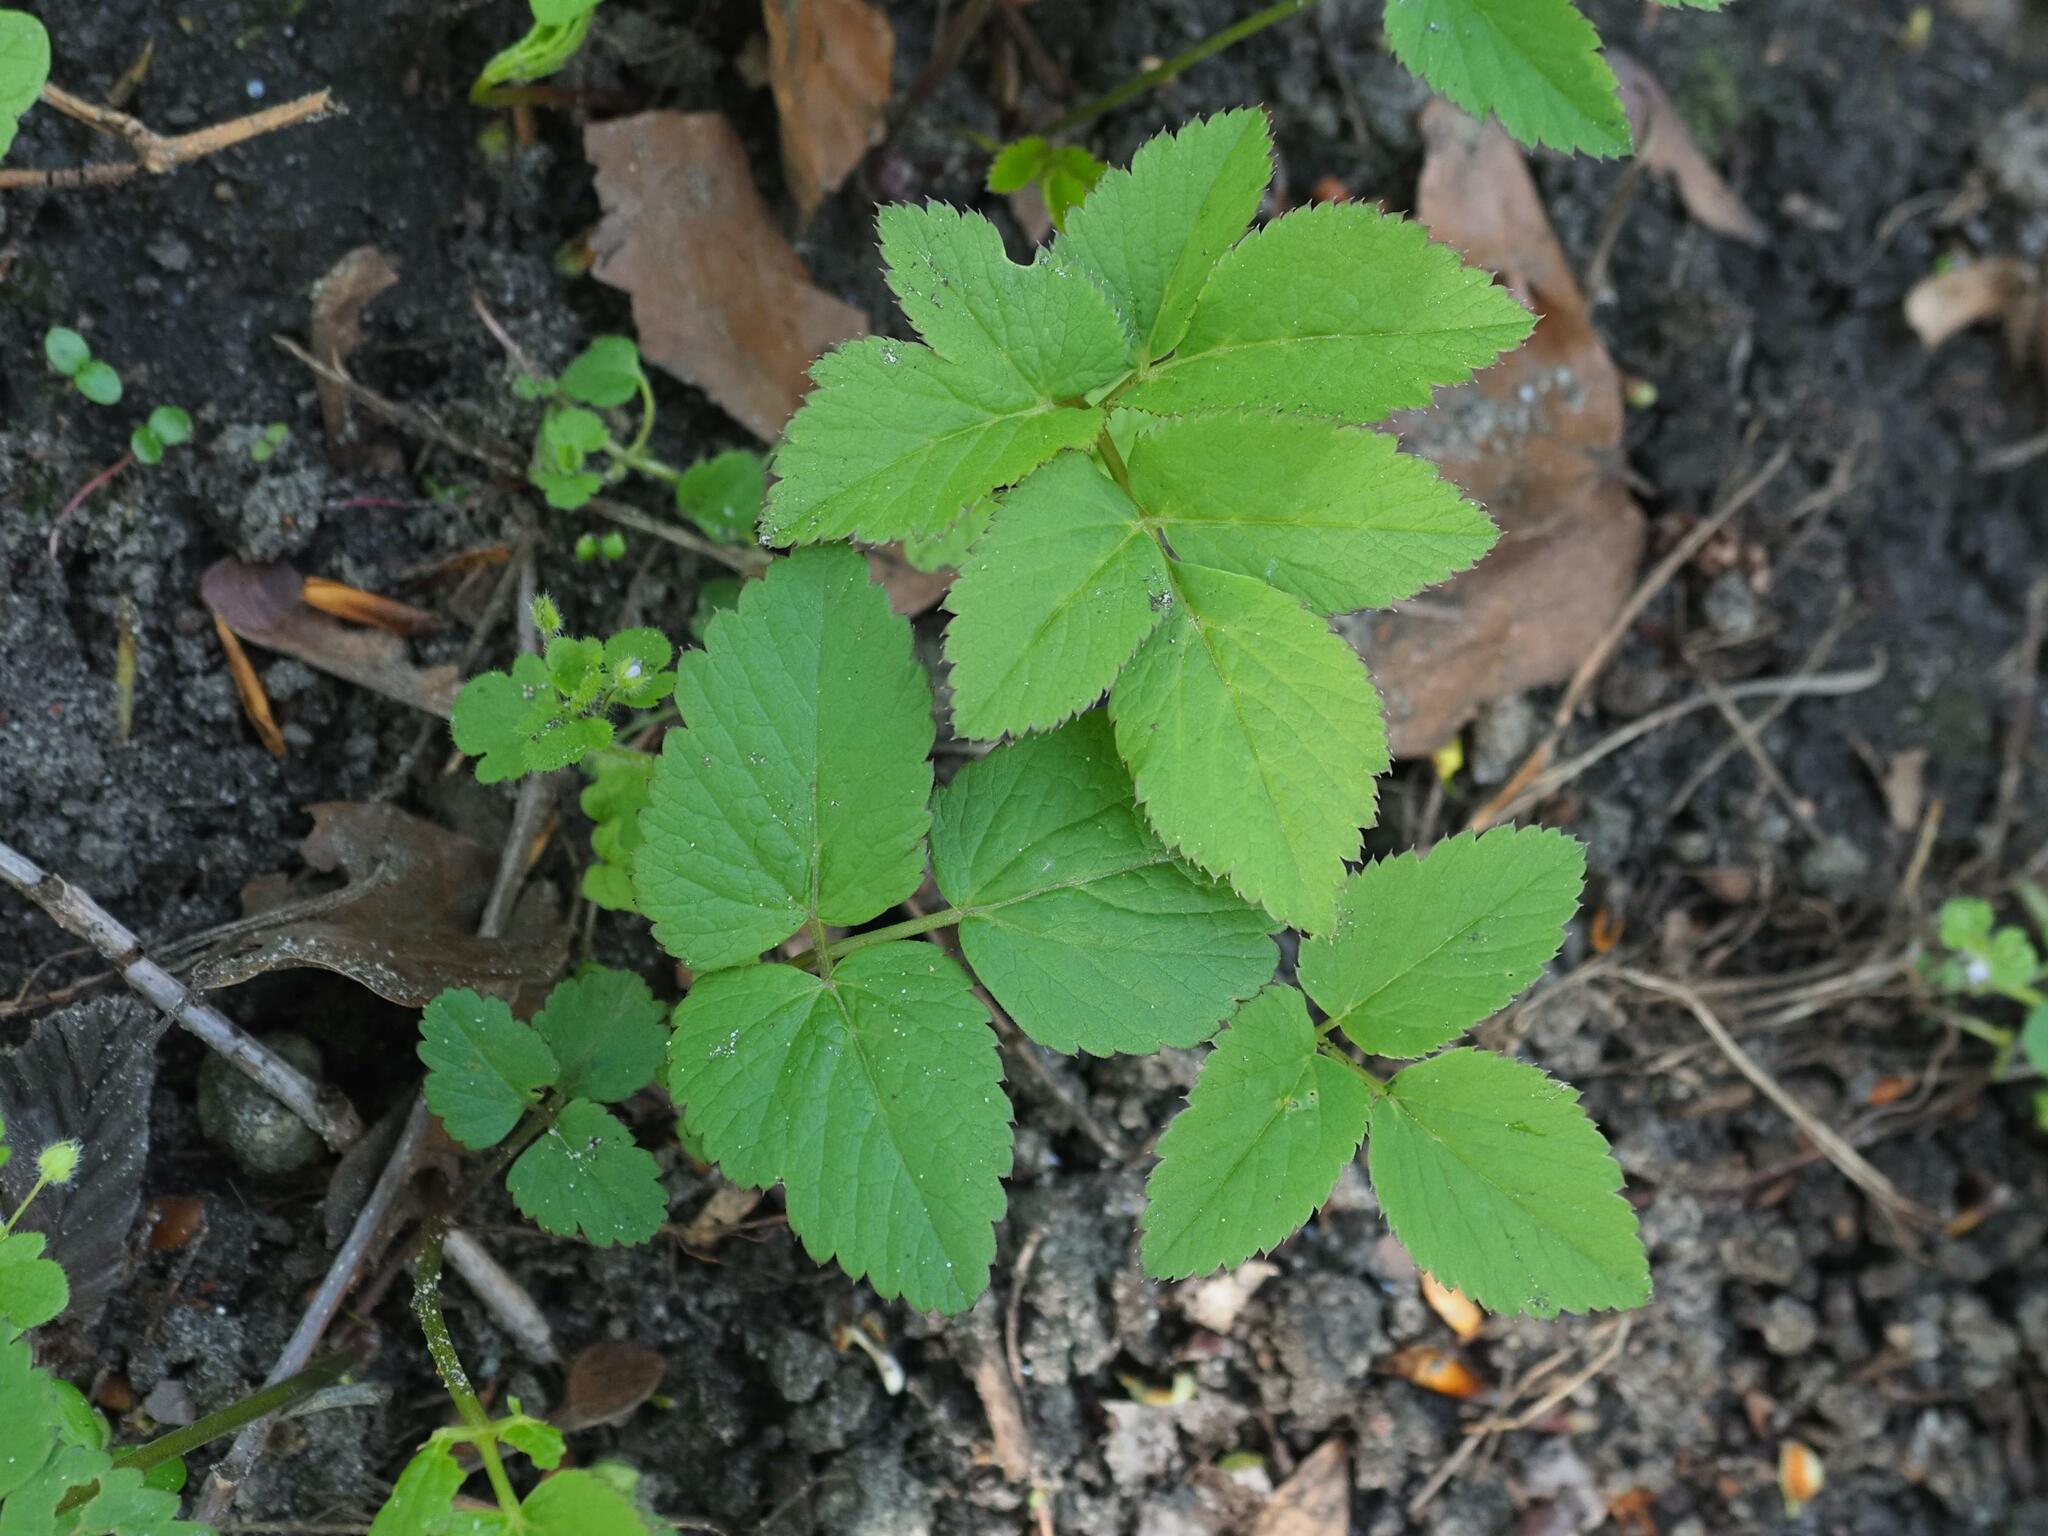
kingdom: Plantae
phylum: Tracheophyta
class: Magnoliopsida
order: Apiales
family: Apiaceae
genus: Aegopodium
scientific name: Aegopodium podagraria
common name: Ground-elder
